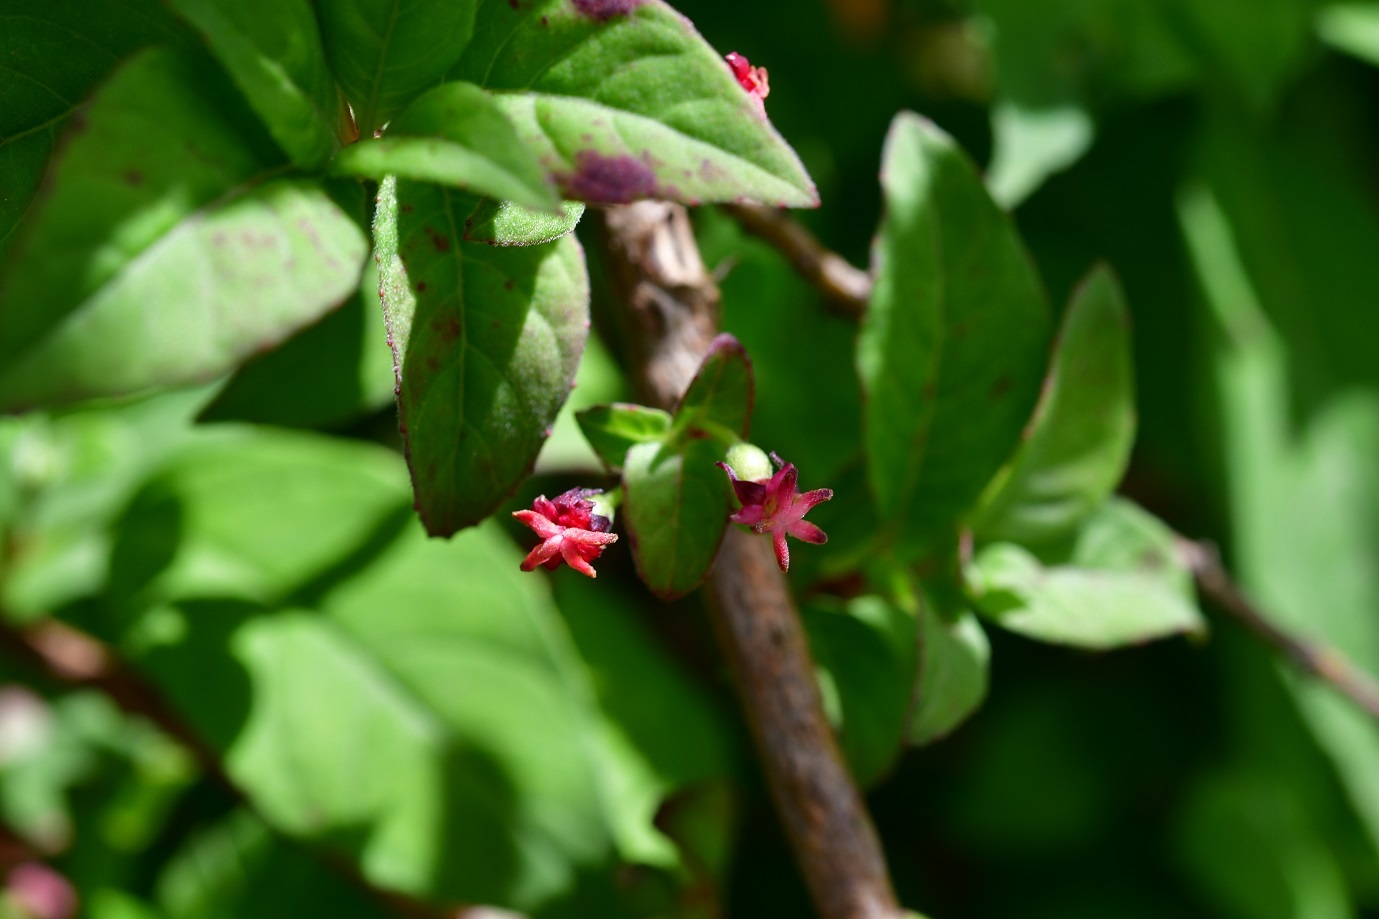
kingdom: Plantae
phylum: Tracheophyta
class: Magnoliopsida
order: Myrtales
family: Onagraceae
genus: Fuchsia
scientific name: Fuchsia encliandra
